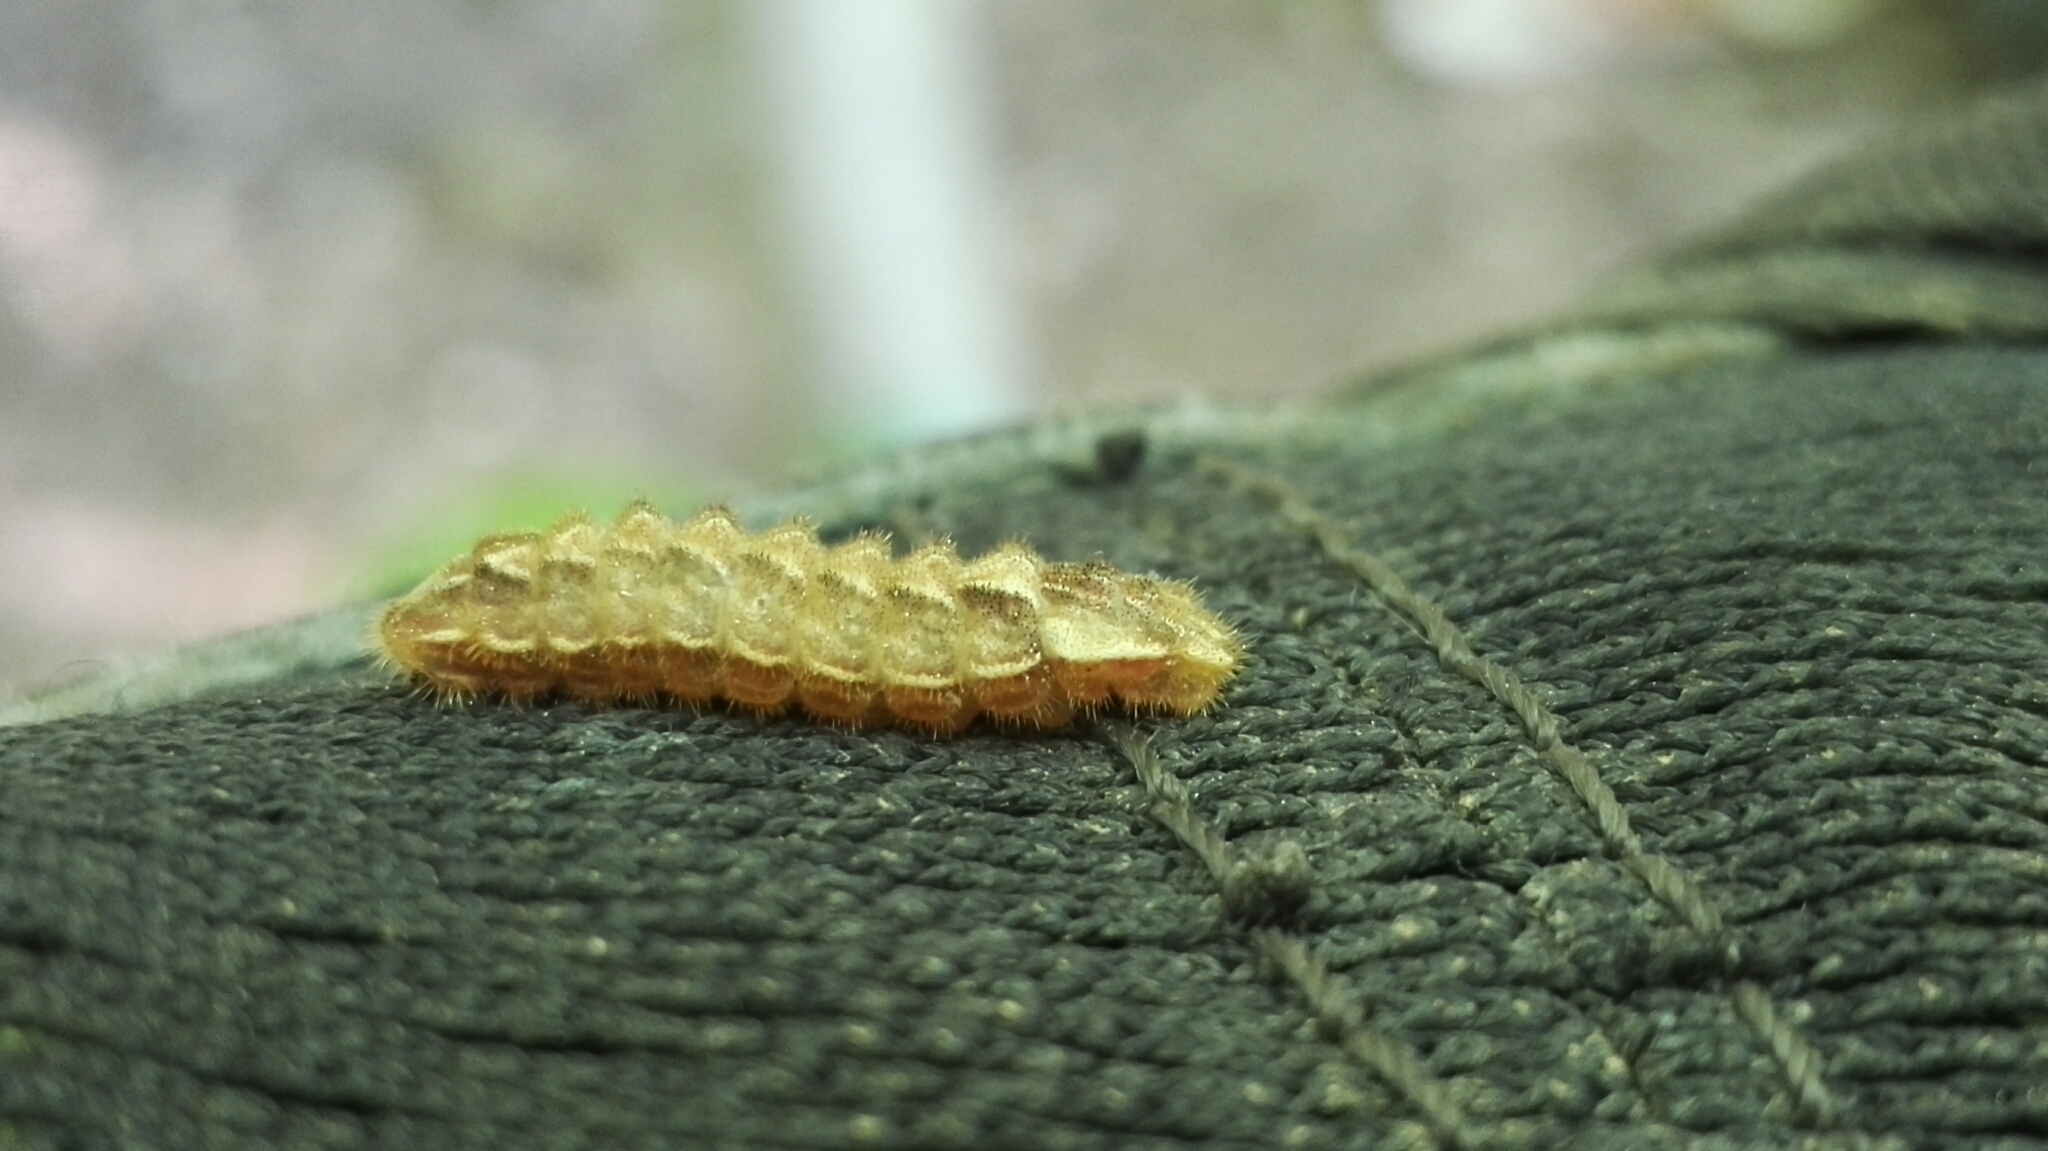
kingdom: Animalia
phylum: Arthropoda
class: Insecta
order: Lepidoptera
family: Lycaenidae
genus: Quercusia
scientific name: Quercusia quercus
